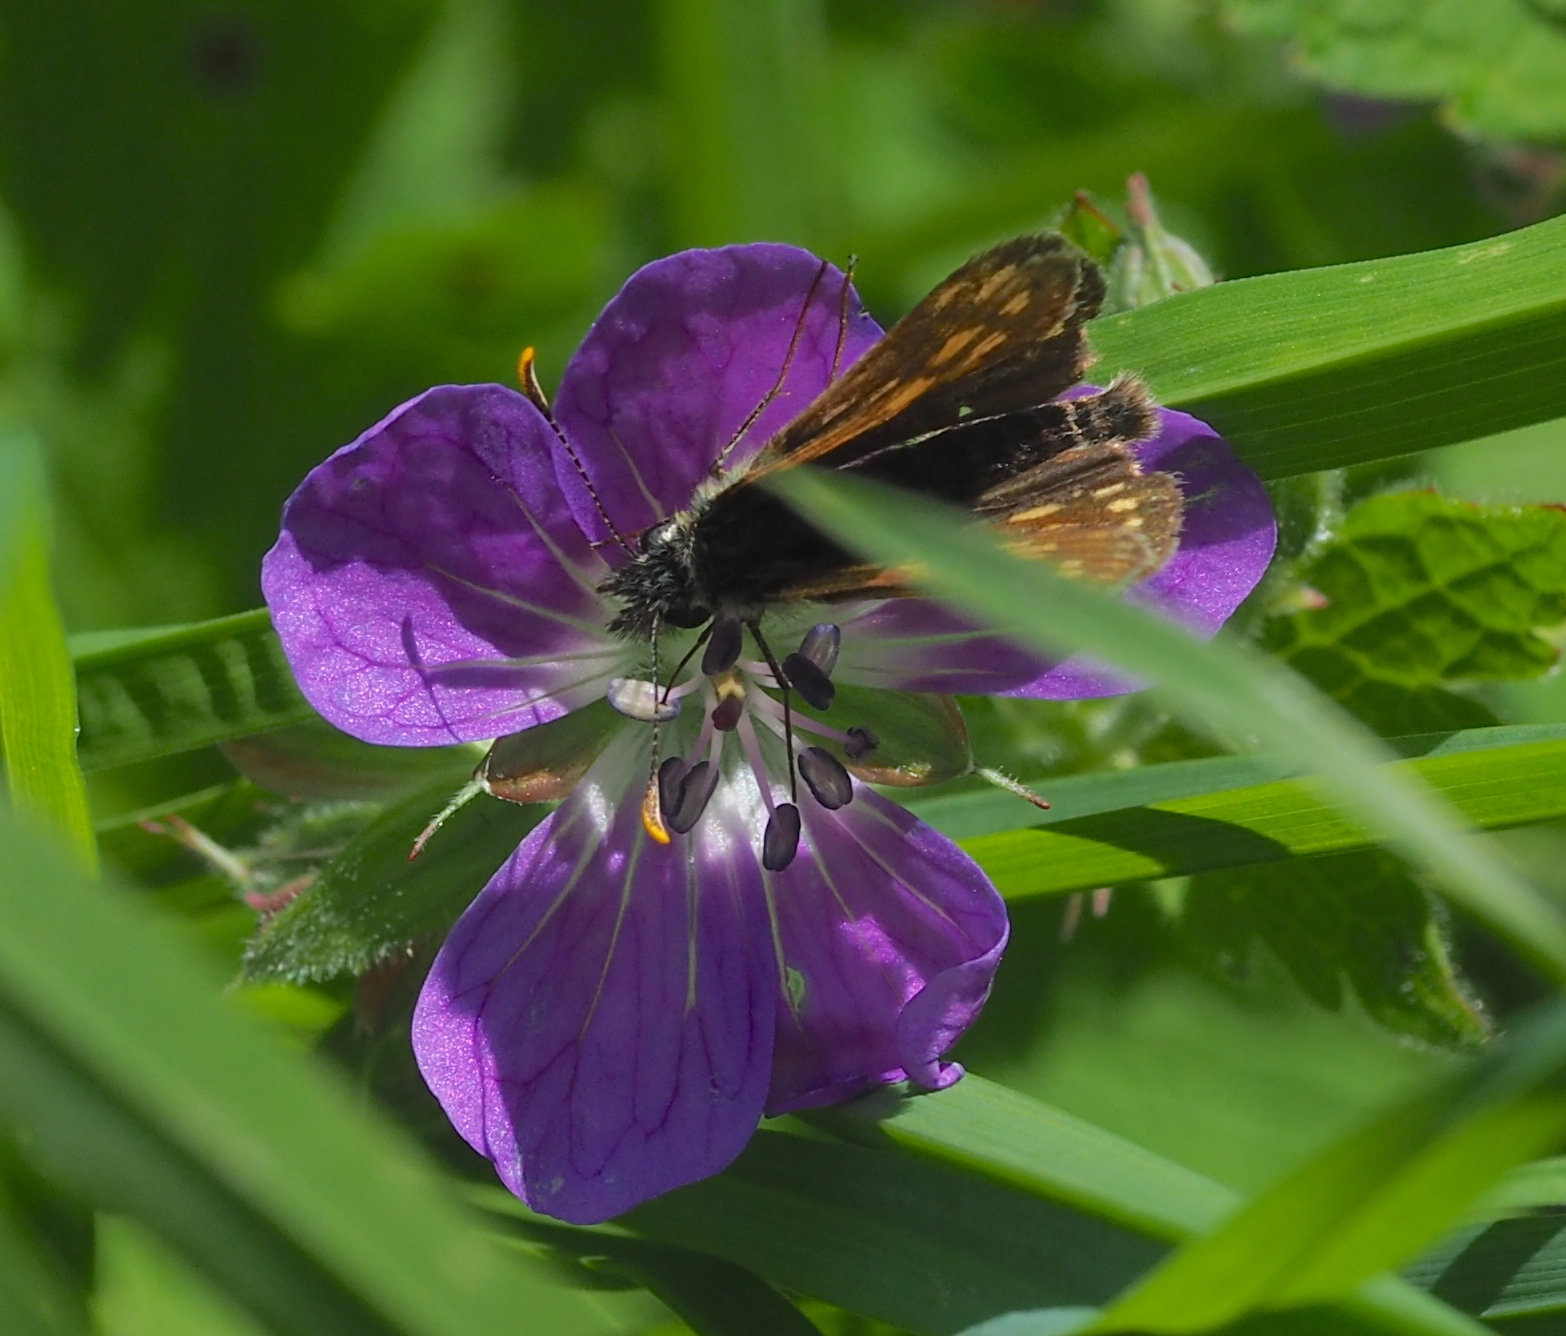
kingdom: Animalia
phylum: Arthropoda
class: Insecta
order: Lepidoptera
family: Hesperiidae
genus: Carterocephalus
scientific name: Carterocephalus palaemon
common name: Chequered skipper
